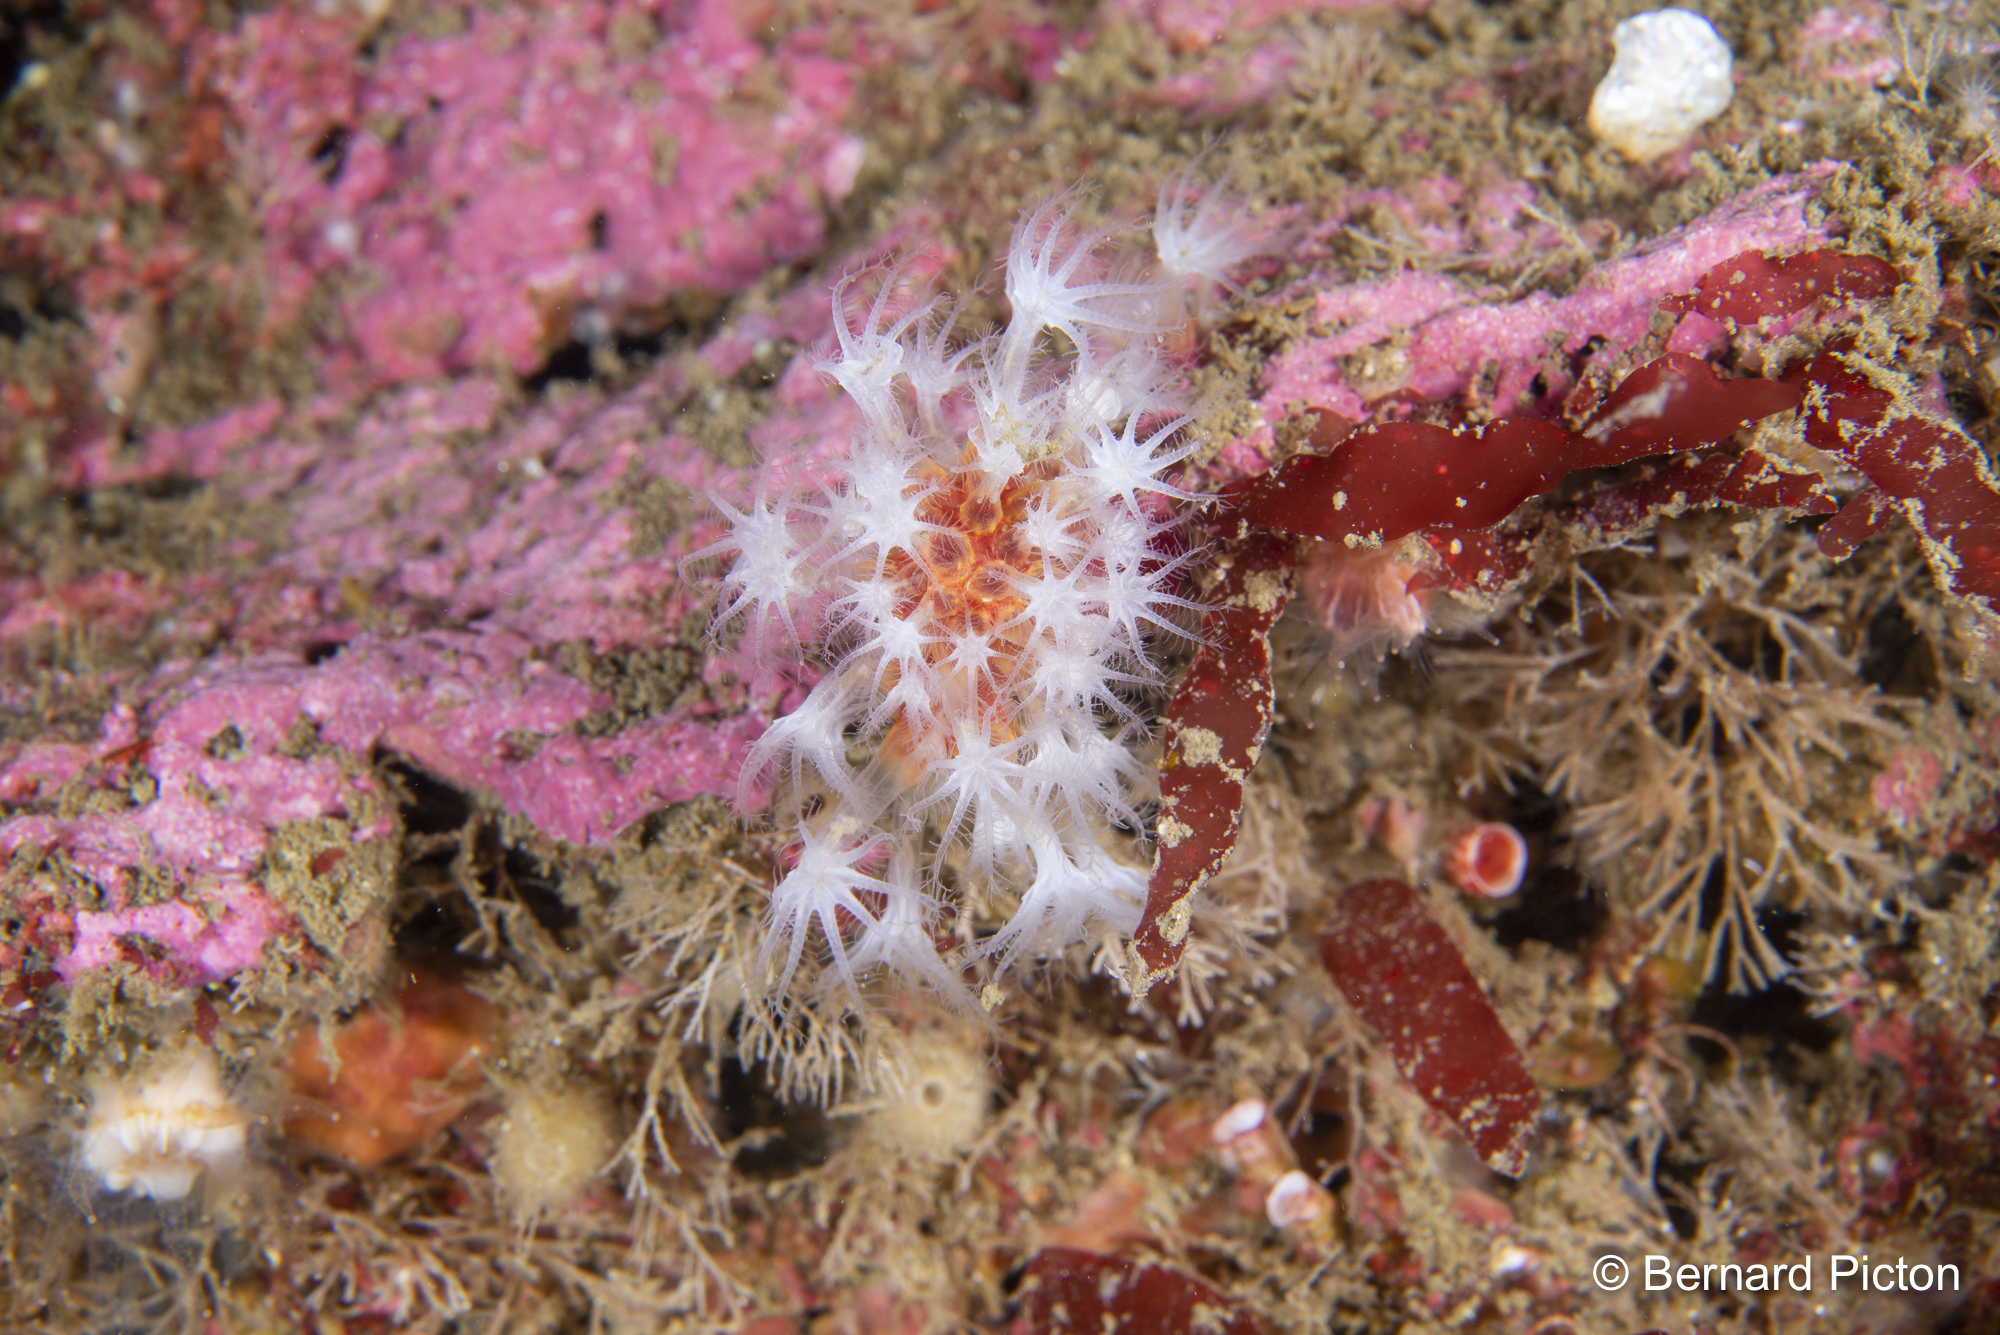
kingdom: Animalia
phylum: Cnidaria
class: Anthozoa
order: Malacalcyonacea
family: Alcyoniidae
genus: Alcyonium
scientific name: Alcyonium glomeratum
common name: Red fingers
